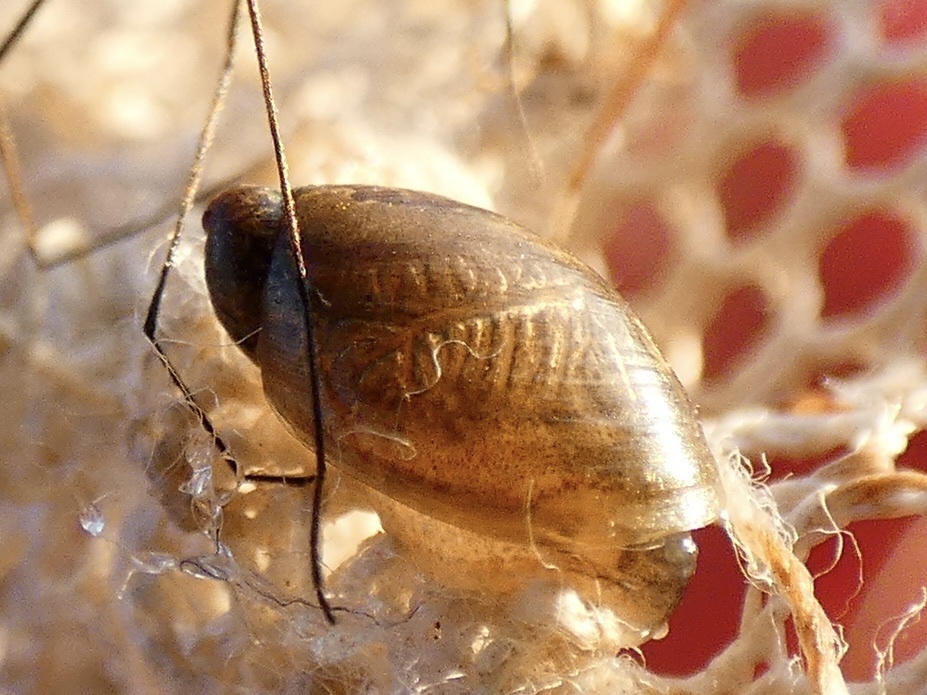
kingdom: Animalia
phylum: Mollusca
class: Gastropoda
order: Stylommatophora
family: Succineidae
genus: Succinea
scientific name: Succinea putris
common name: European ambersnail
